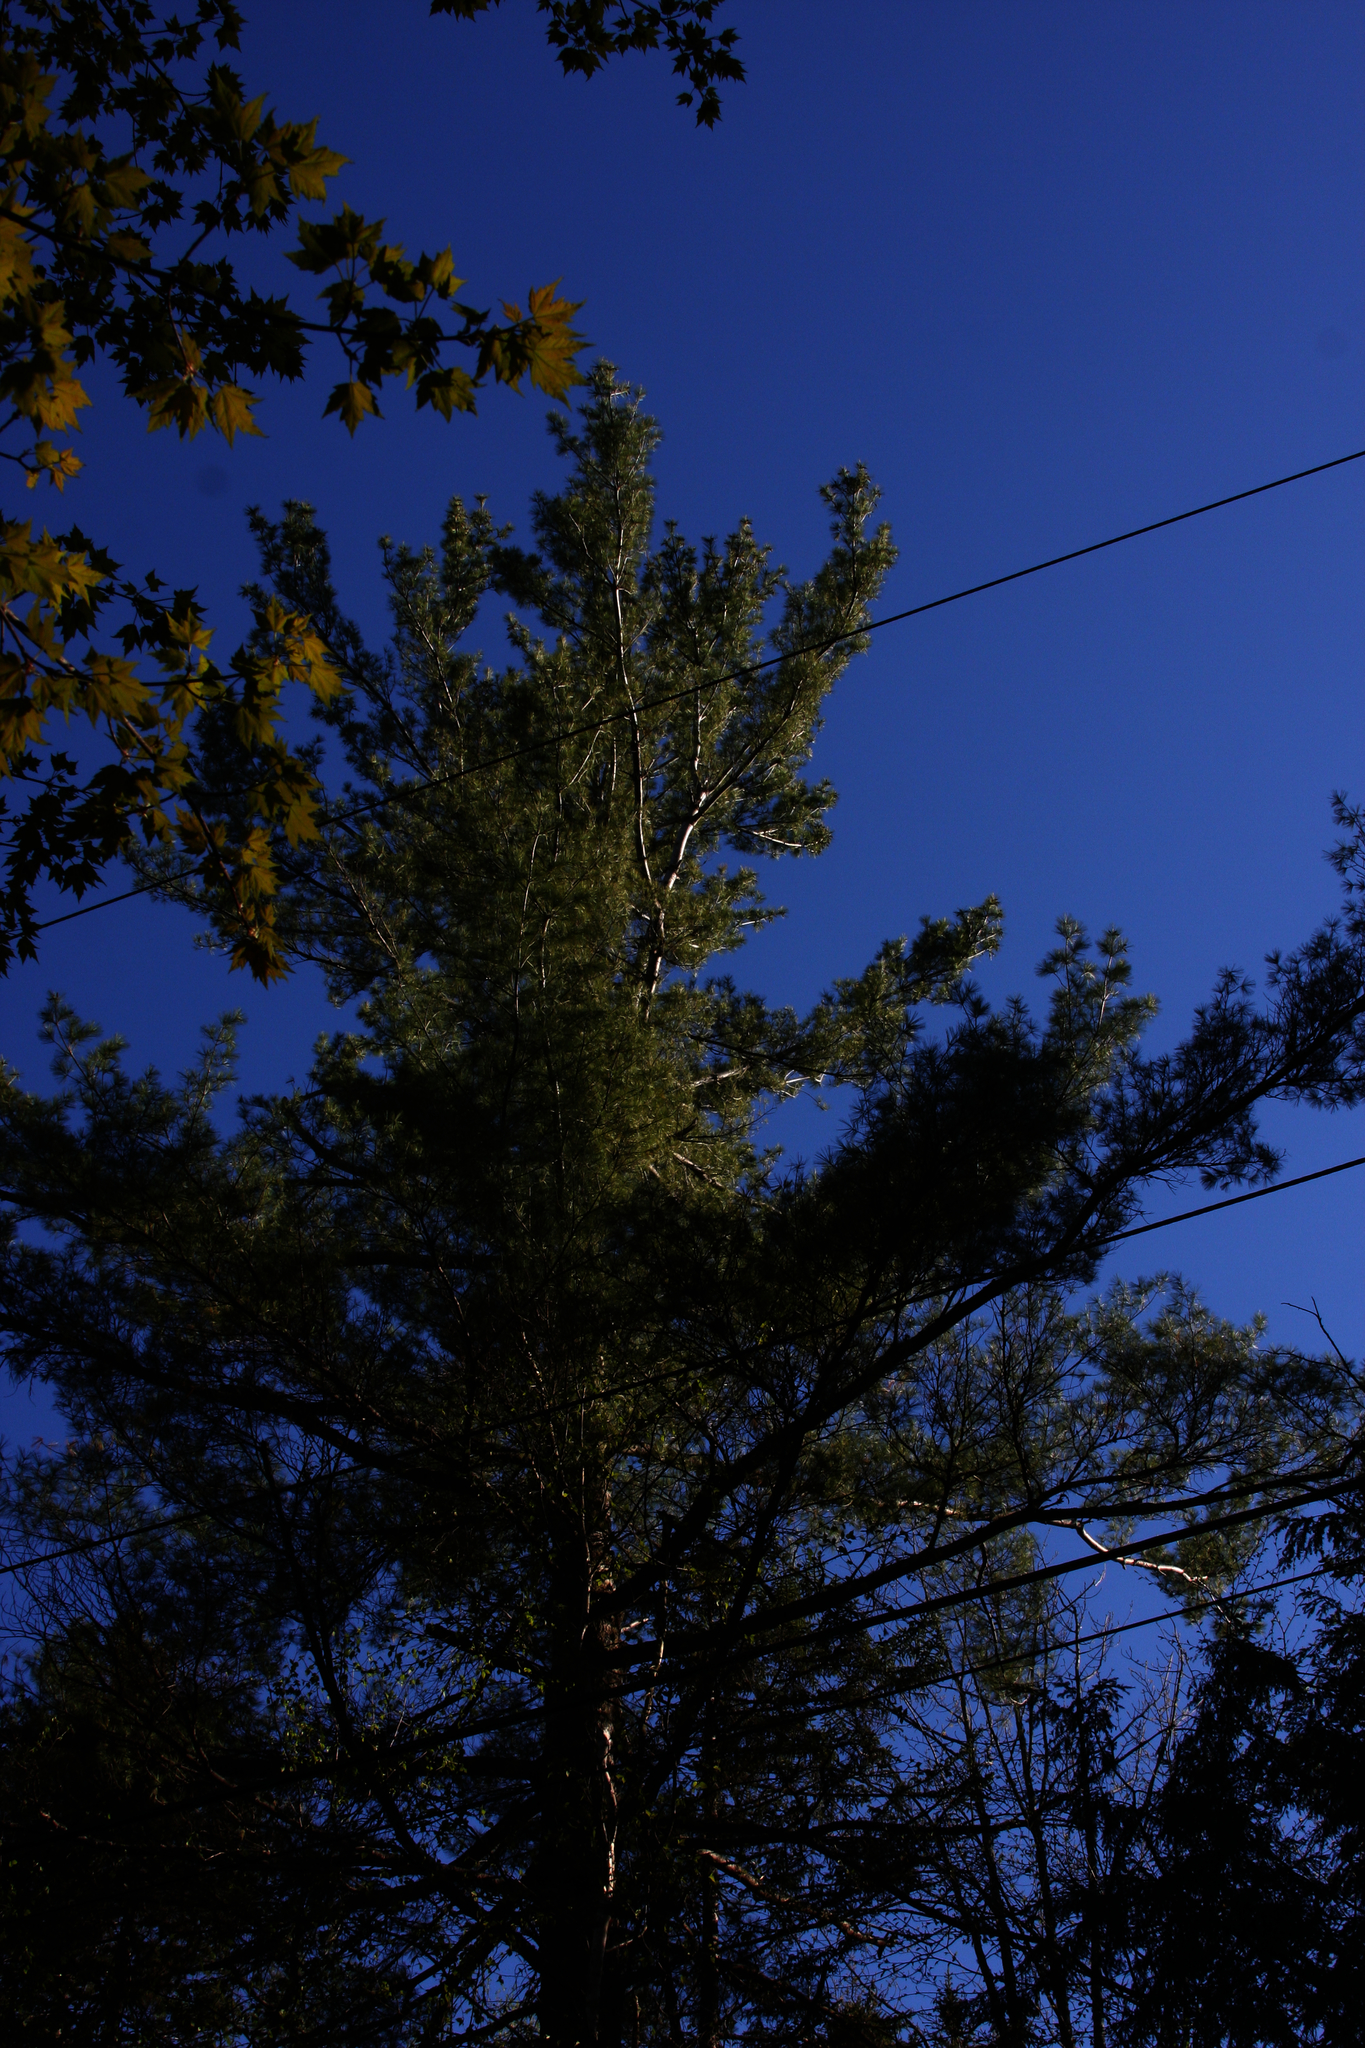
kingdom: Plantae
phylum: Tracheophyta
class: Pinopsida
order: Pinales
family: Pinaceae
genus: Pinus
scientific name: Pinus strobus
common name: Weymouth pine
